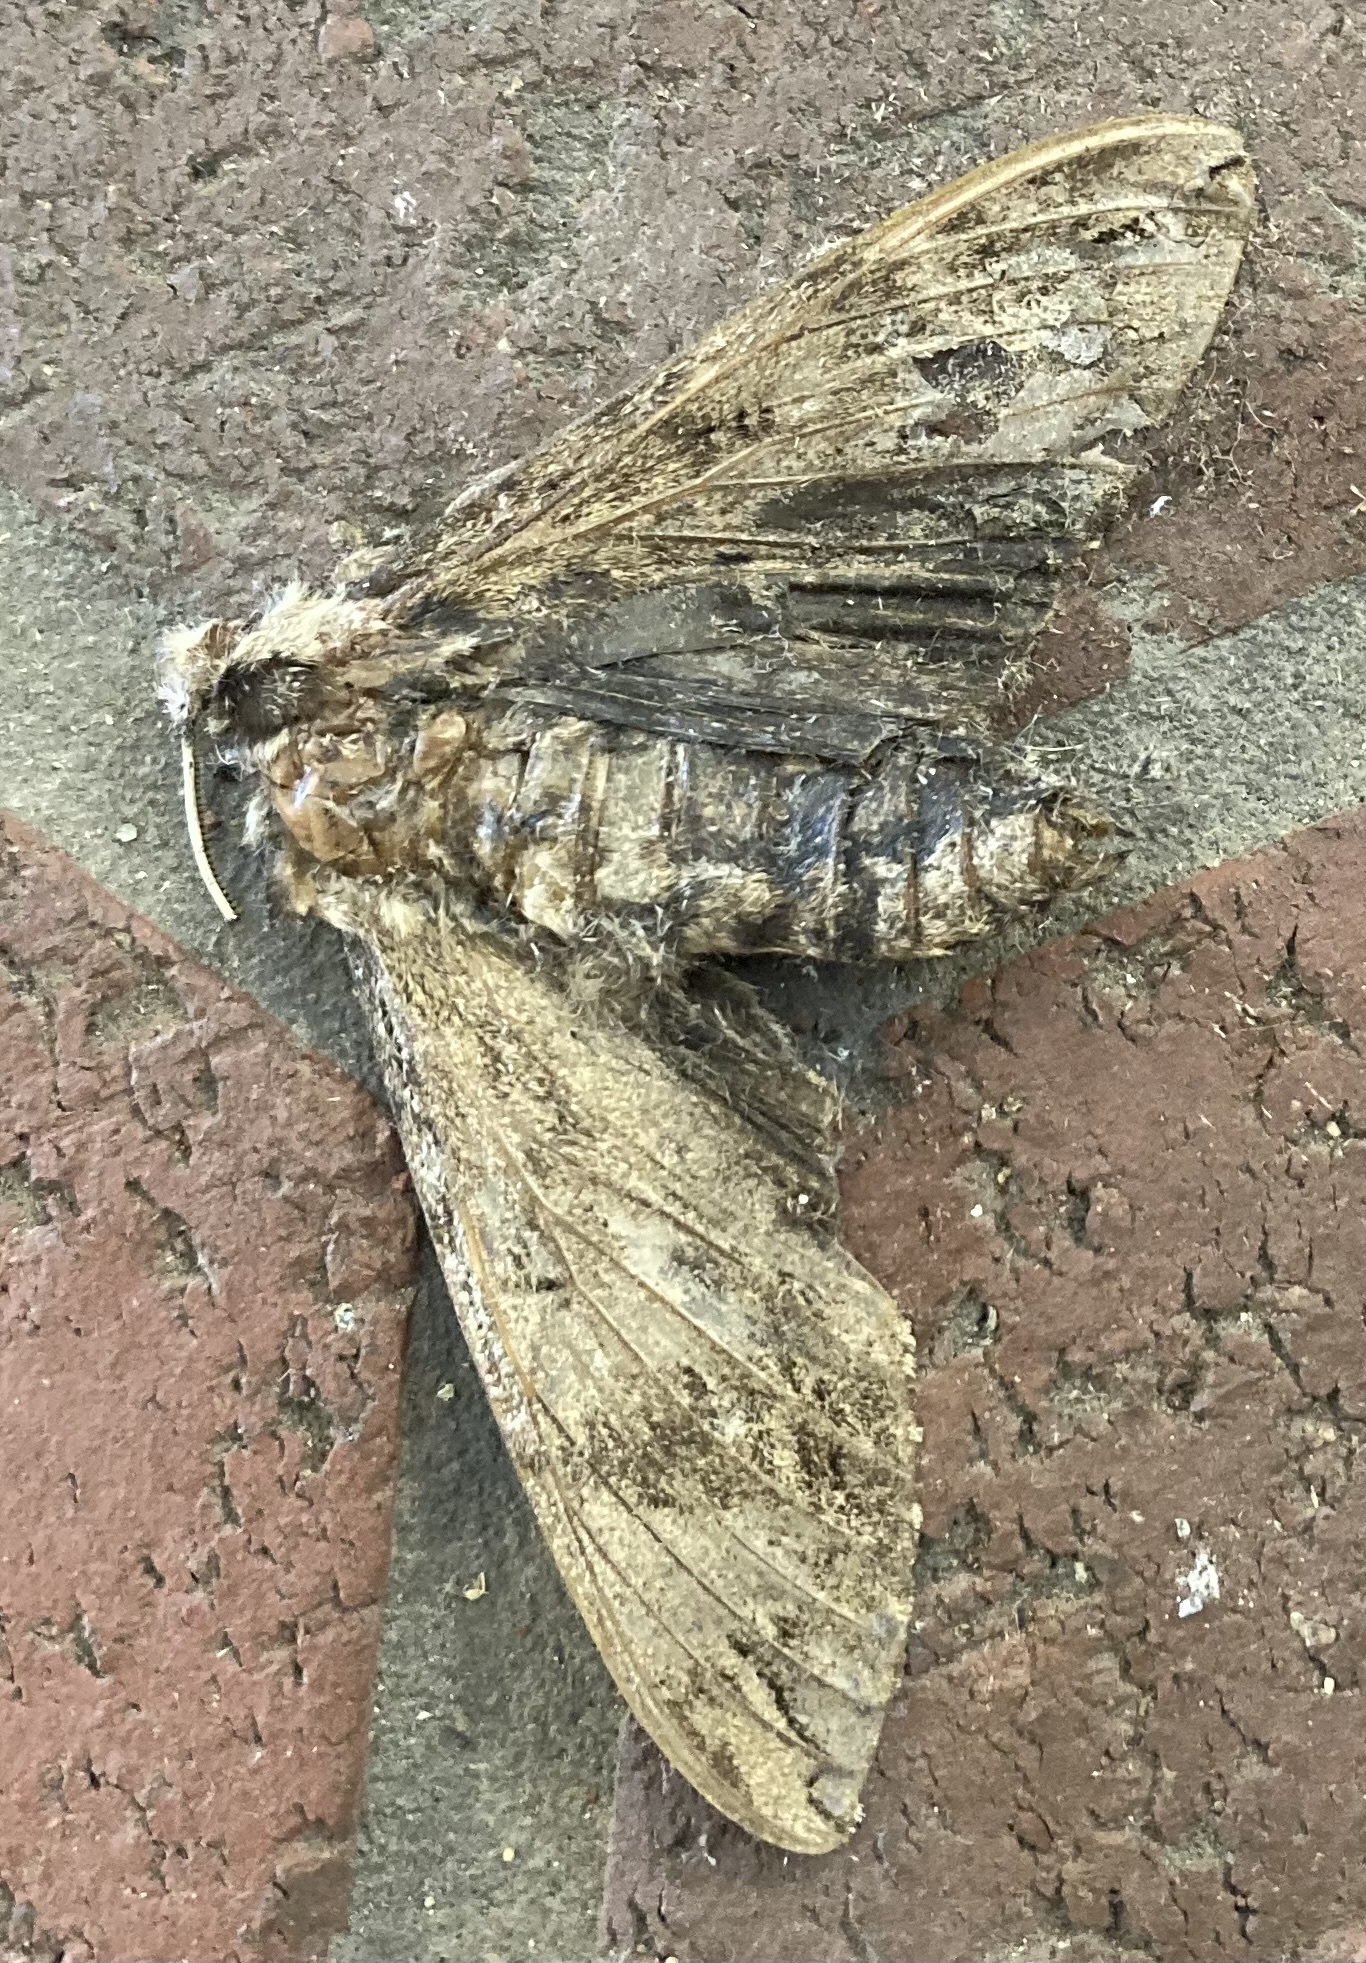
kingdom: Animalia
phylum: Arthropoda
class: Insecta
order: Lepidoptera
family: Sphingidae
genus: Ceratomia
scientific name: Ceratomia catalpae
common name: Catalpa hornworm
